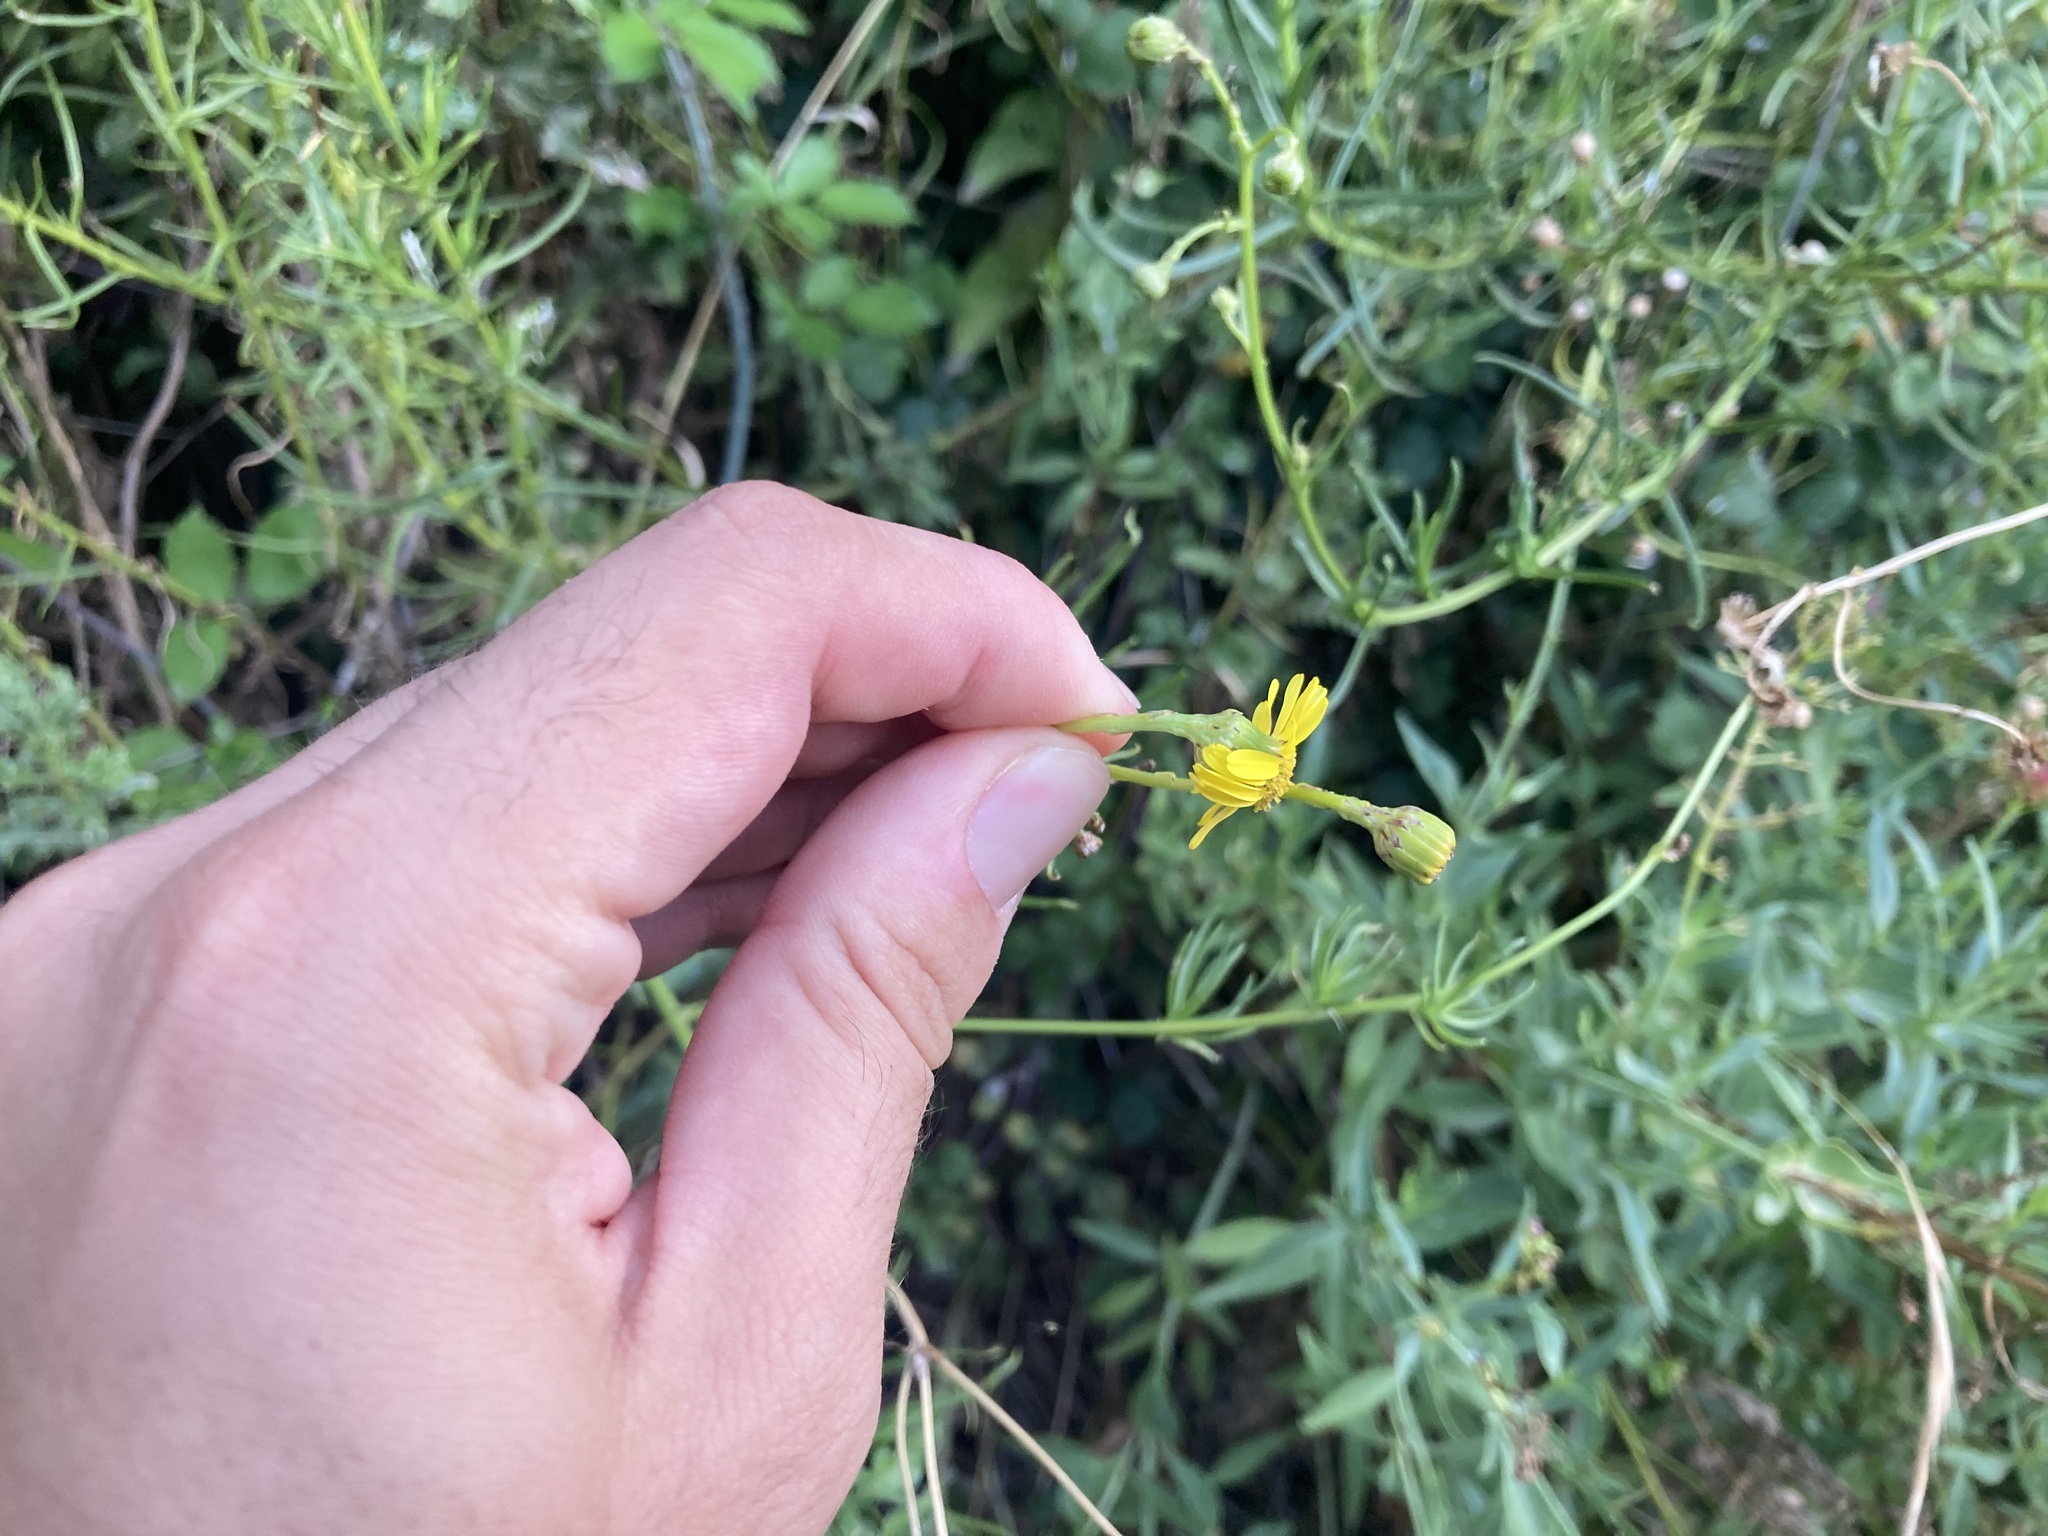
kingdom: Plantae
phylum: Tracheophyta
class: Magnoliopsida
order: Asterales
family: Asteraceae
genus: Senecio
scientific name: Senecio inaequidens
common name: Narrow-leaved ragwort
